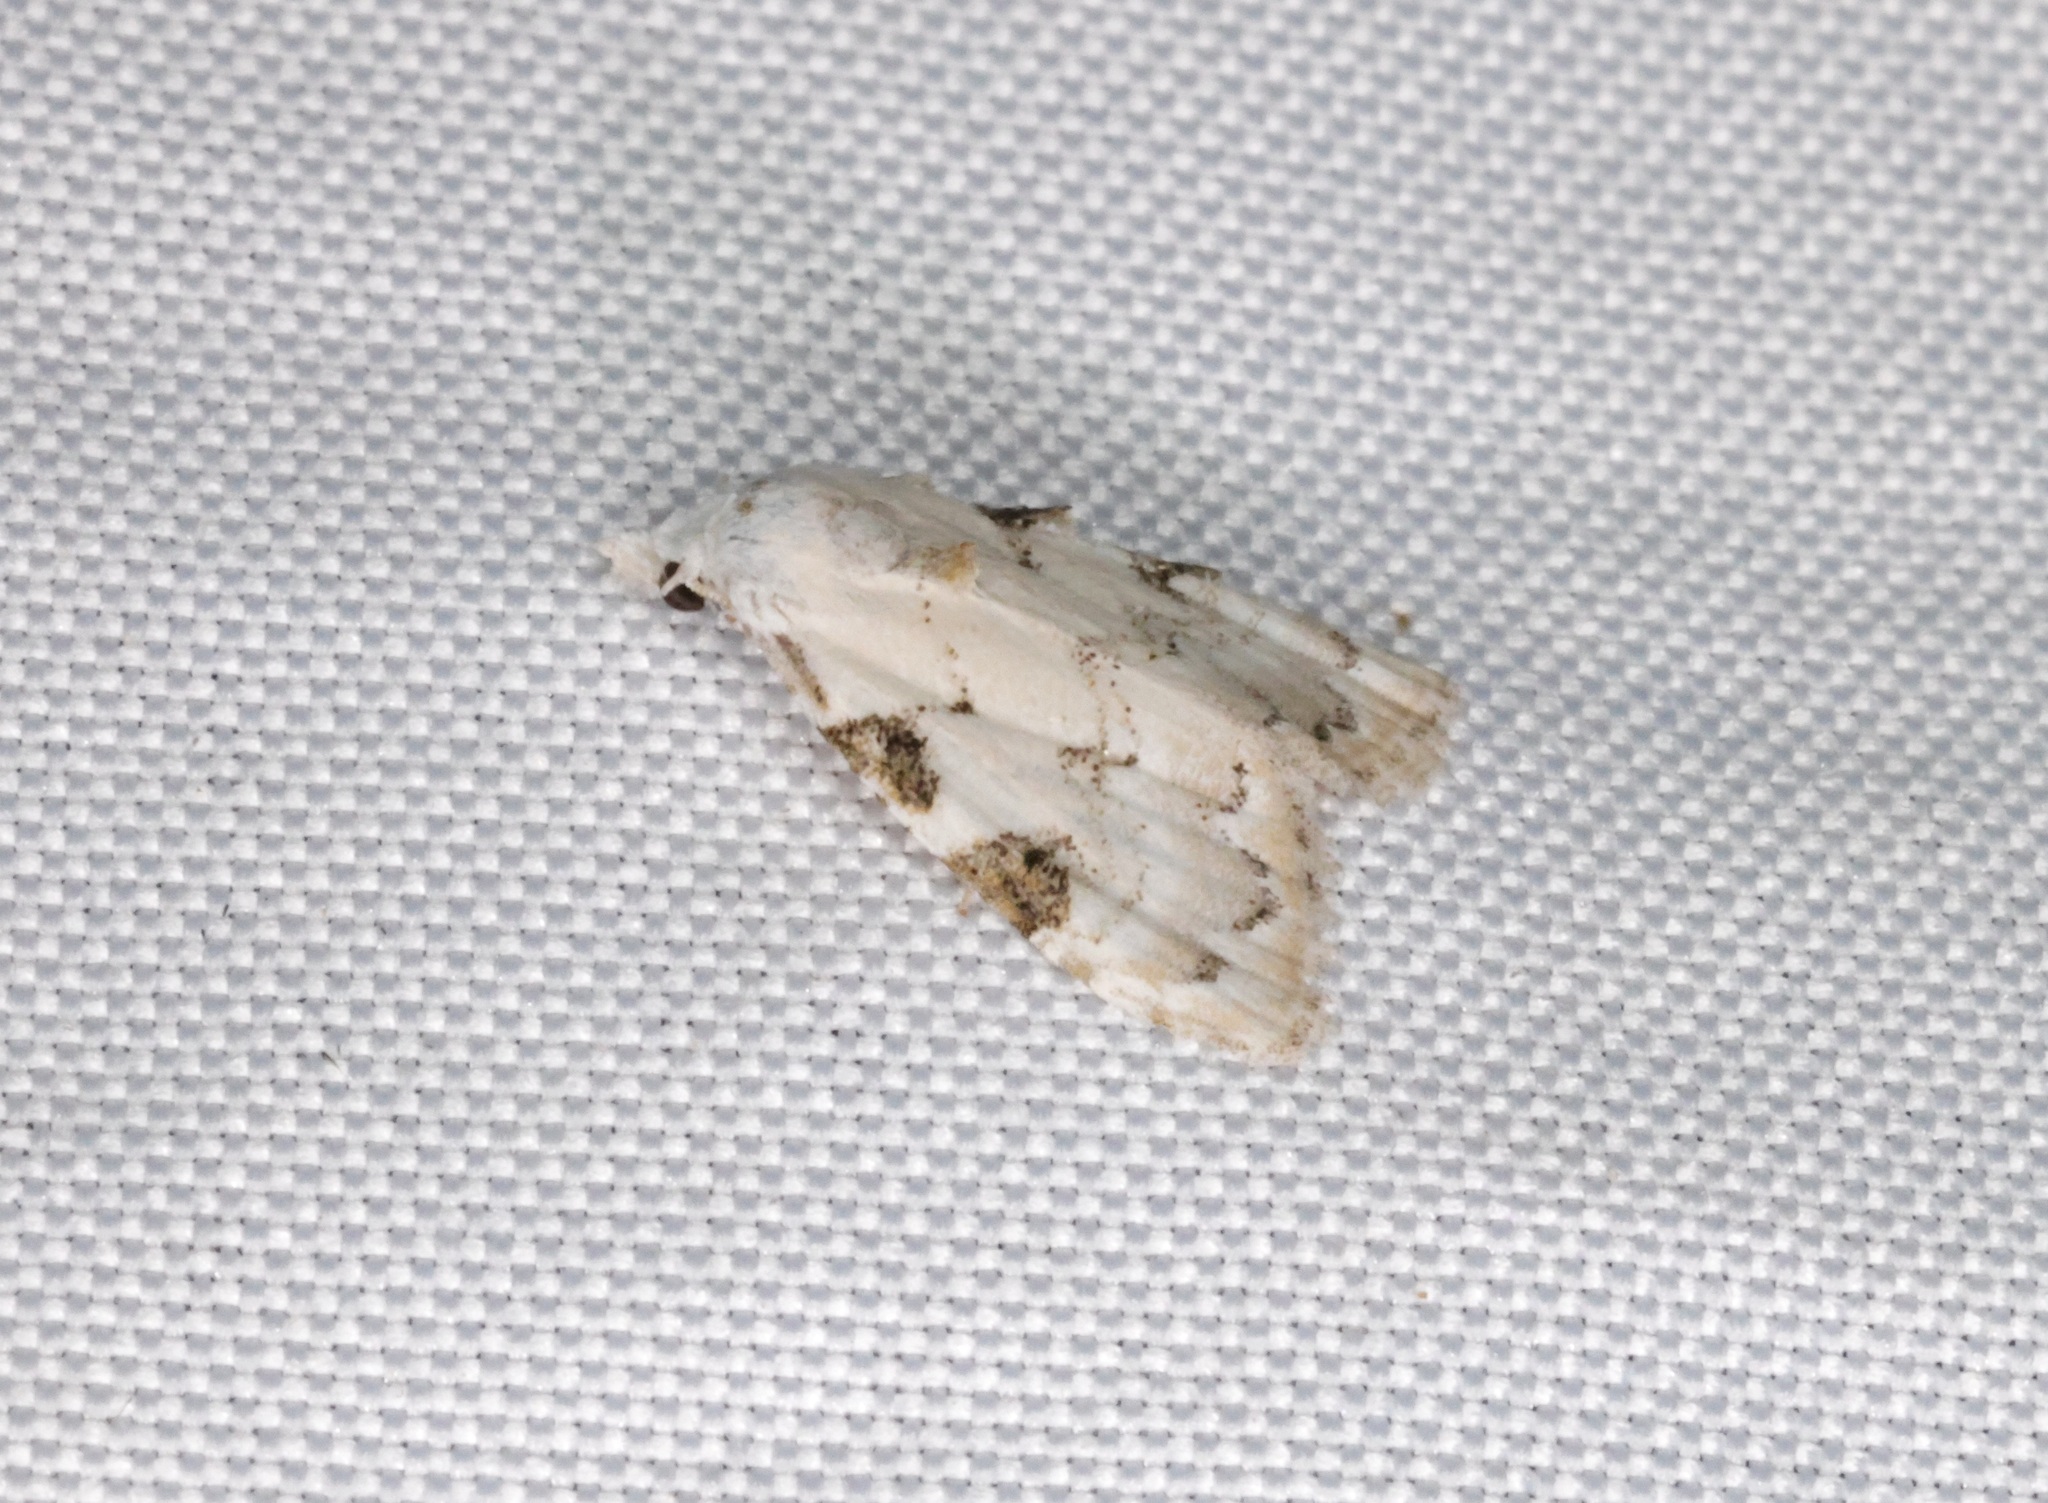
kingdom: Animalia
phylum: Arthropoda
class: Insecta
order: Lepidoptera
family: Nolidae
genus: Nola
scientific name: Nola pascua
